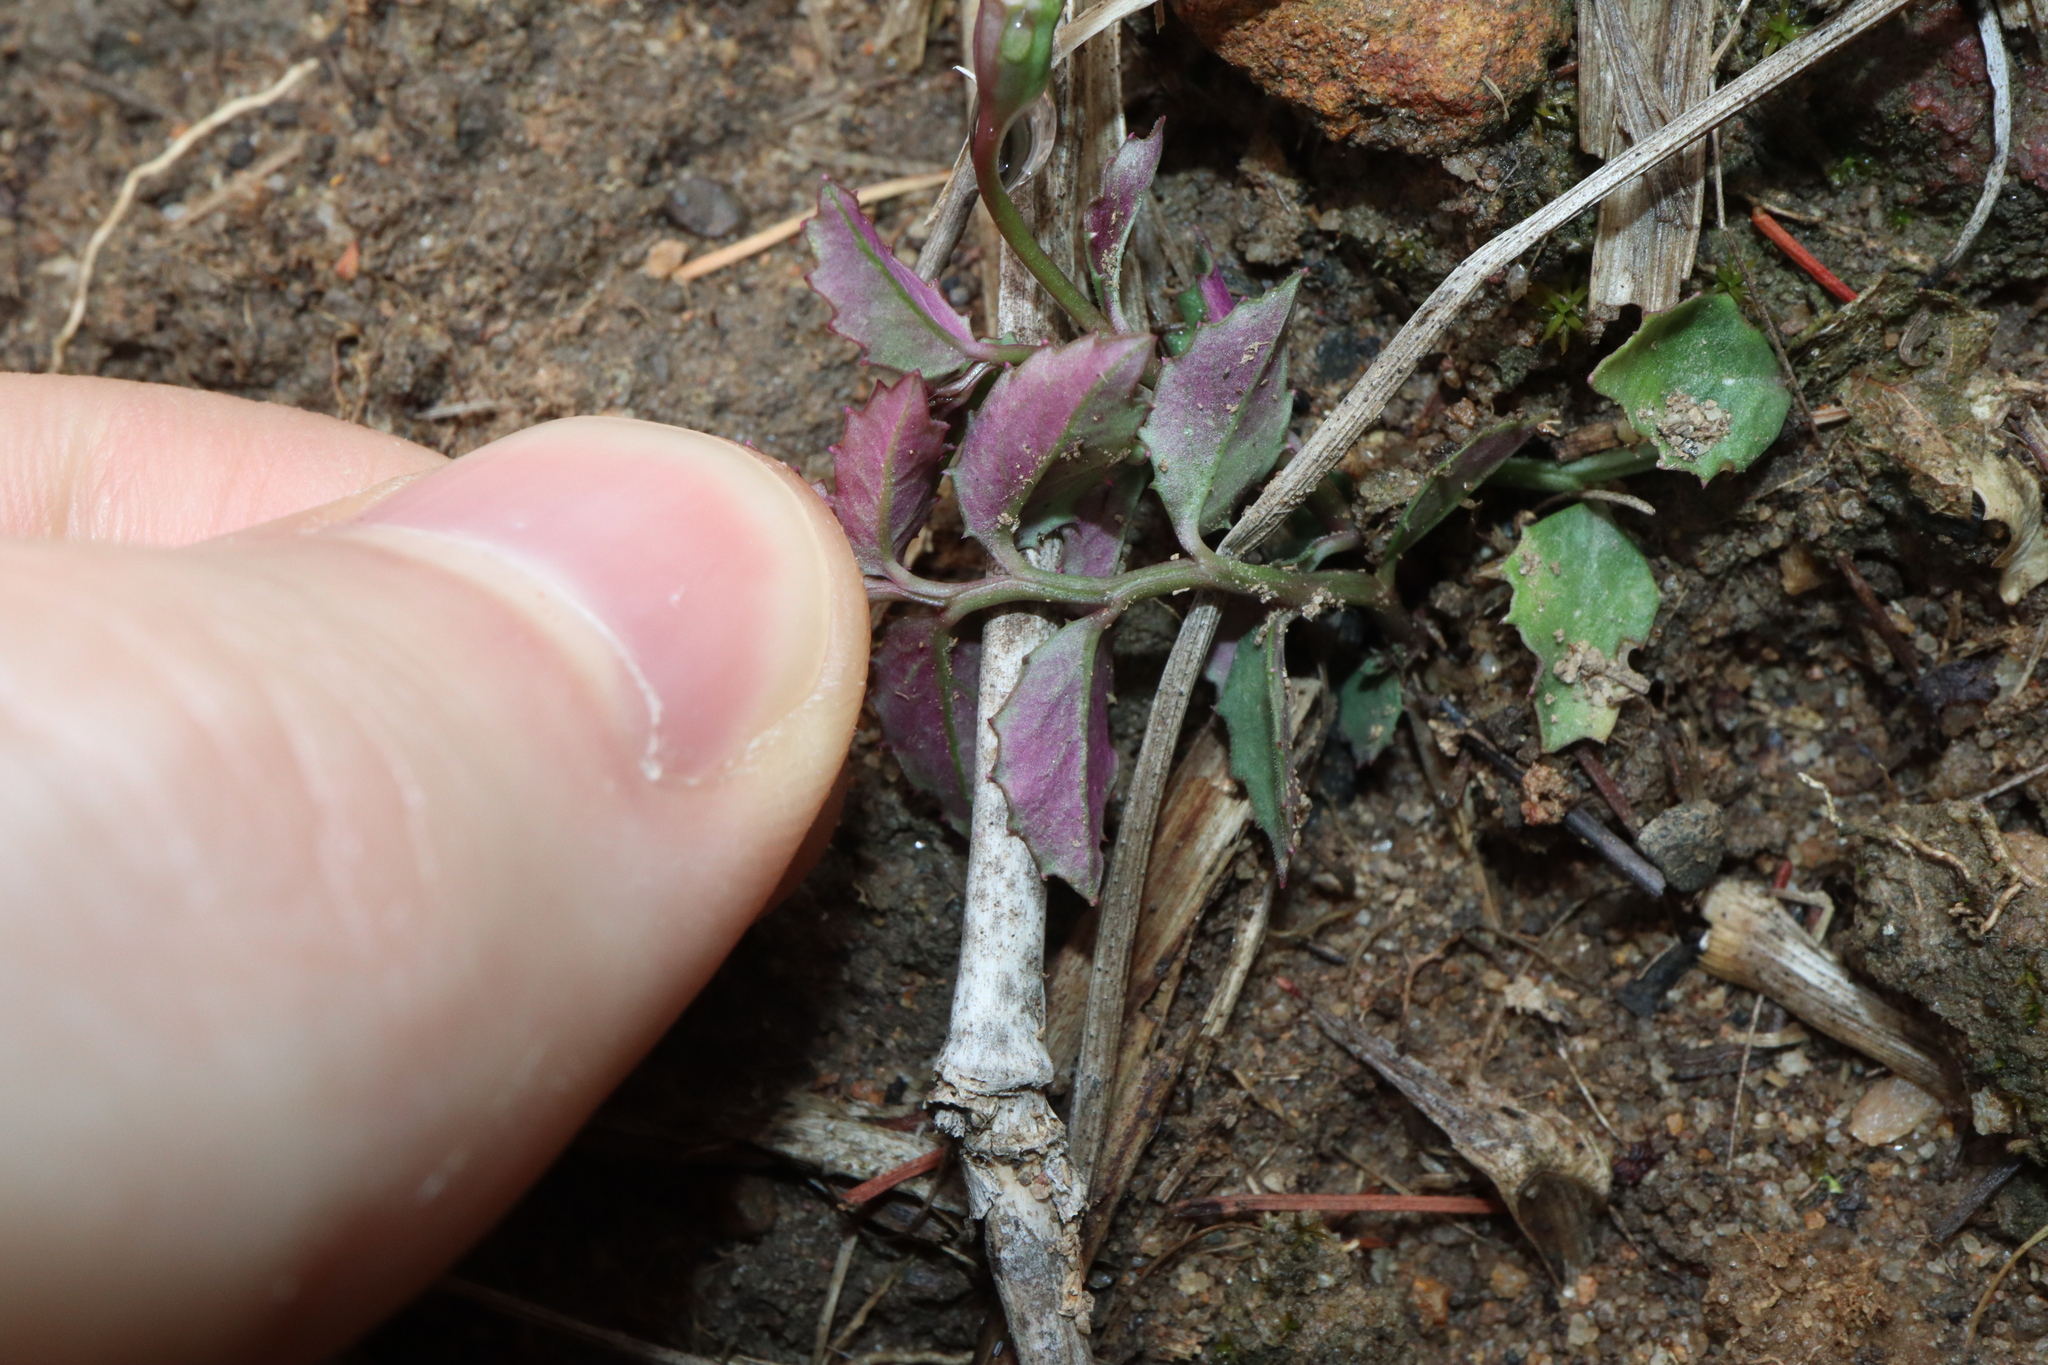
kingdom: Plantae
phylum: Tracheophyta
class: Magnoliopsida
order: Asterales
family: Campanulaceae
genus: Lobelia
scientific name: Lobelia purpurascens
